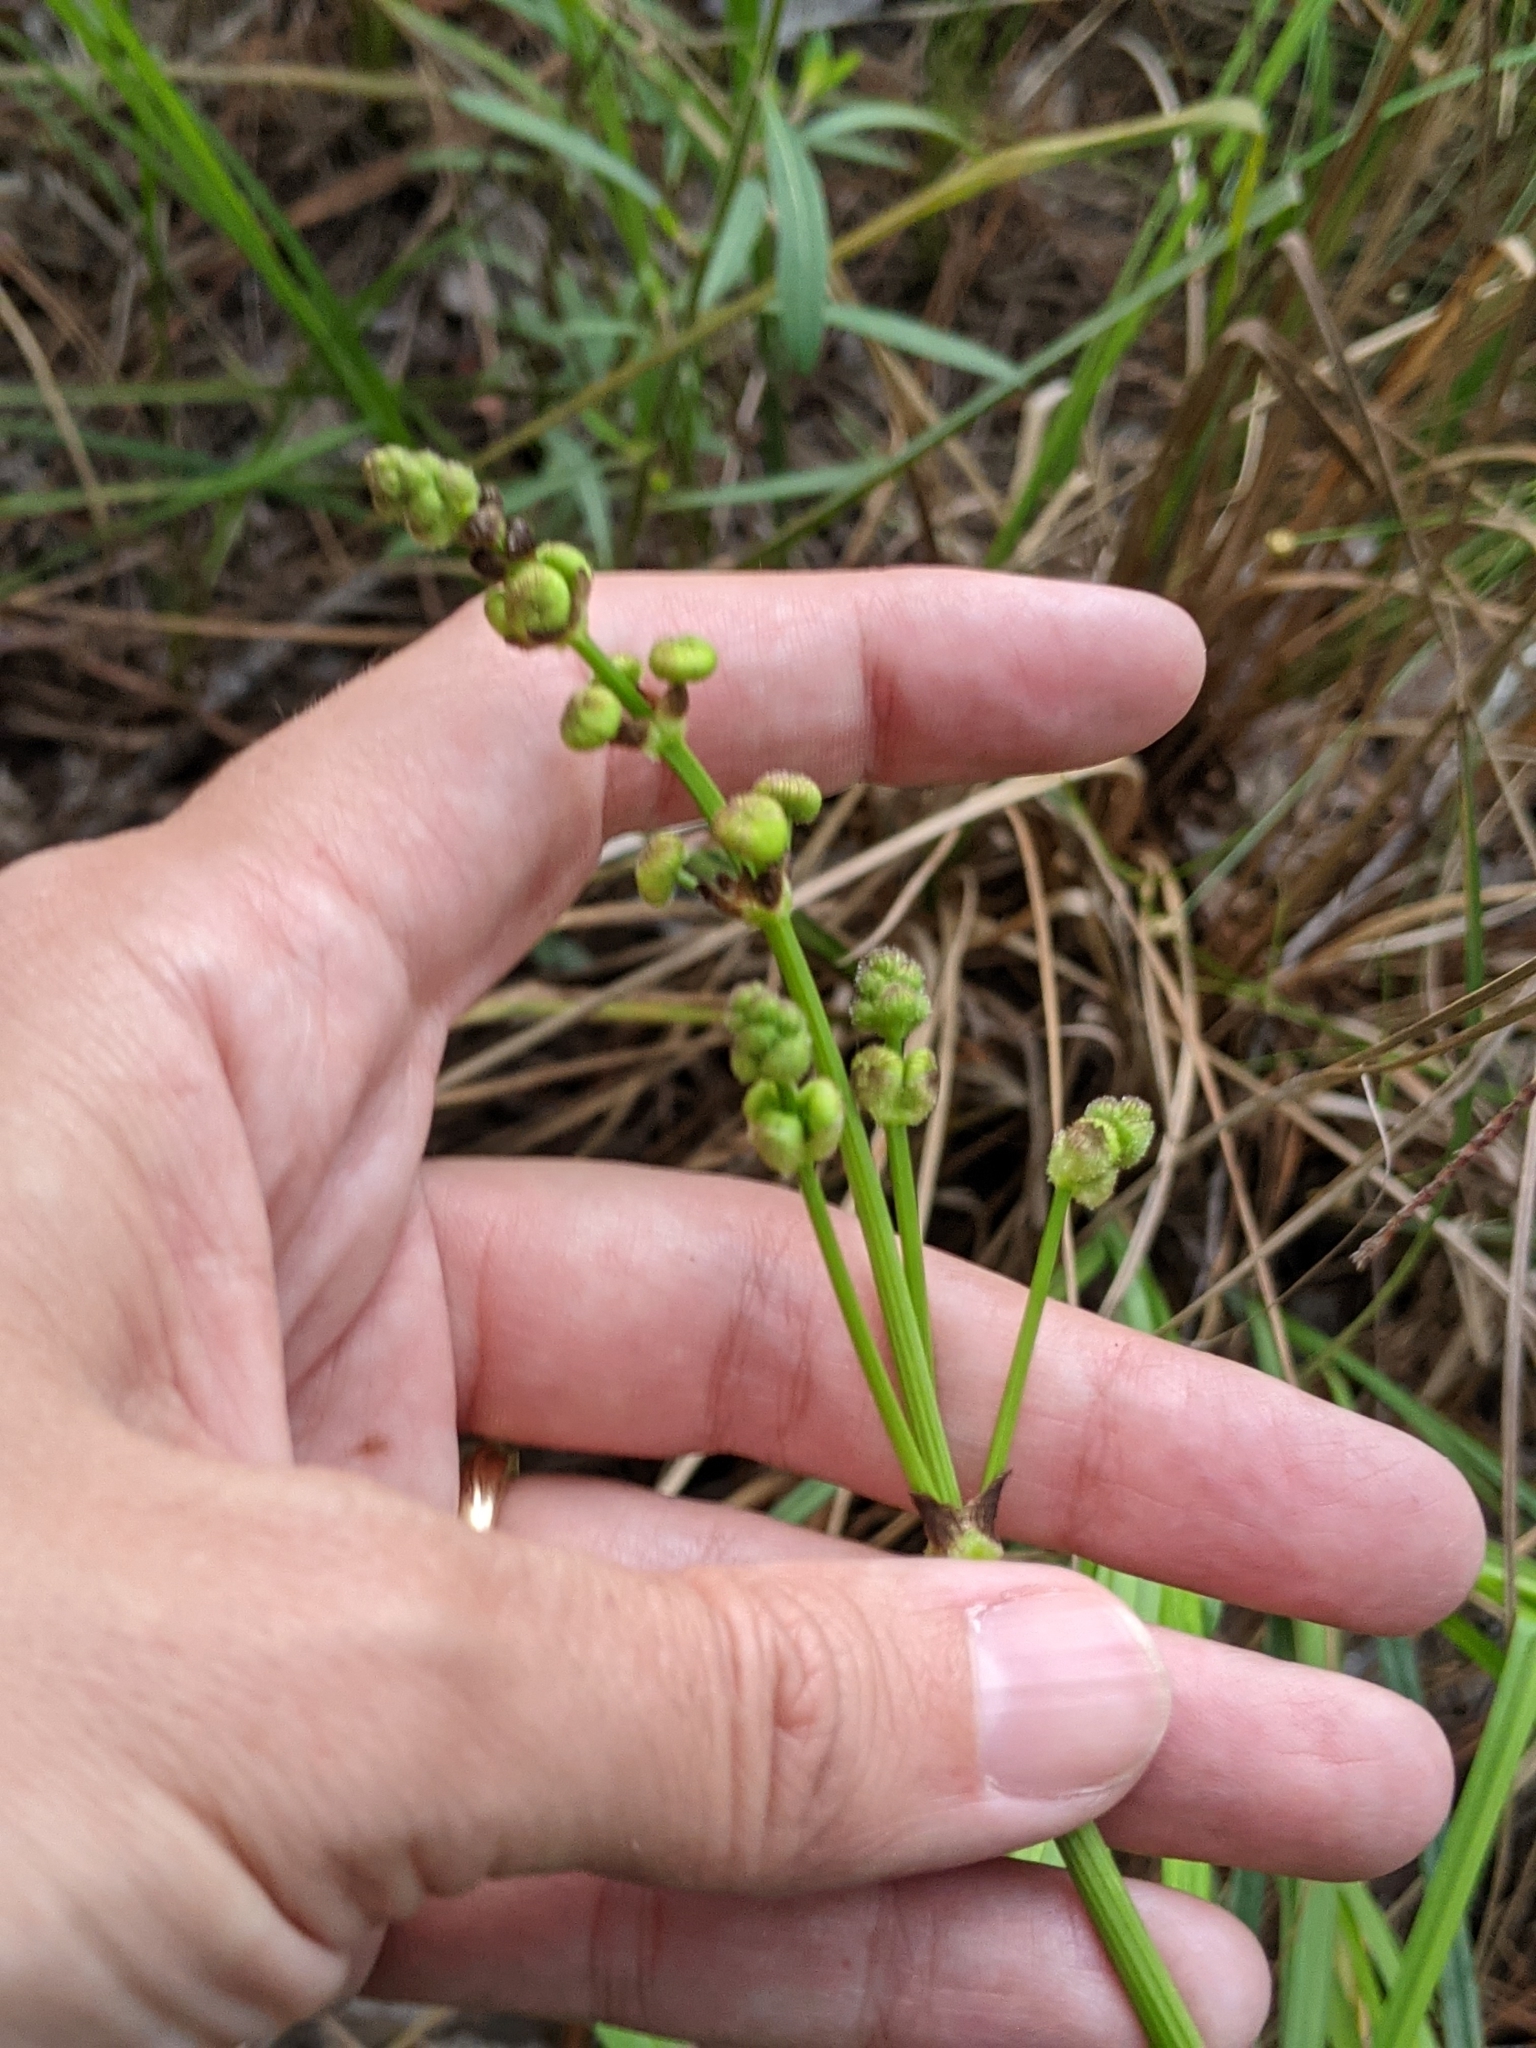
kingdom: Plantae
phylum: Tracheophyta
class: Liliopsida
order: Alismatales
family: Alismataceae
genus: Sagittaria
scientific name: Sagittaria papillosa
